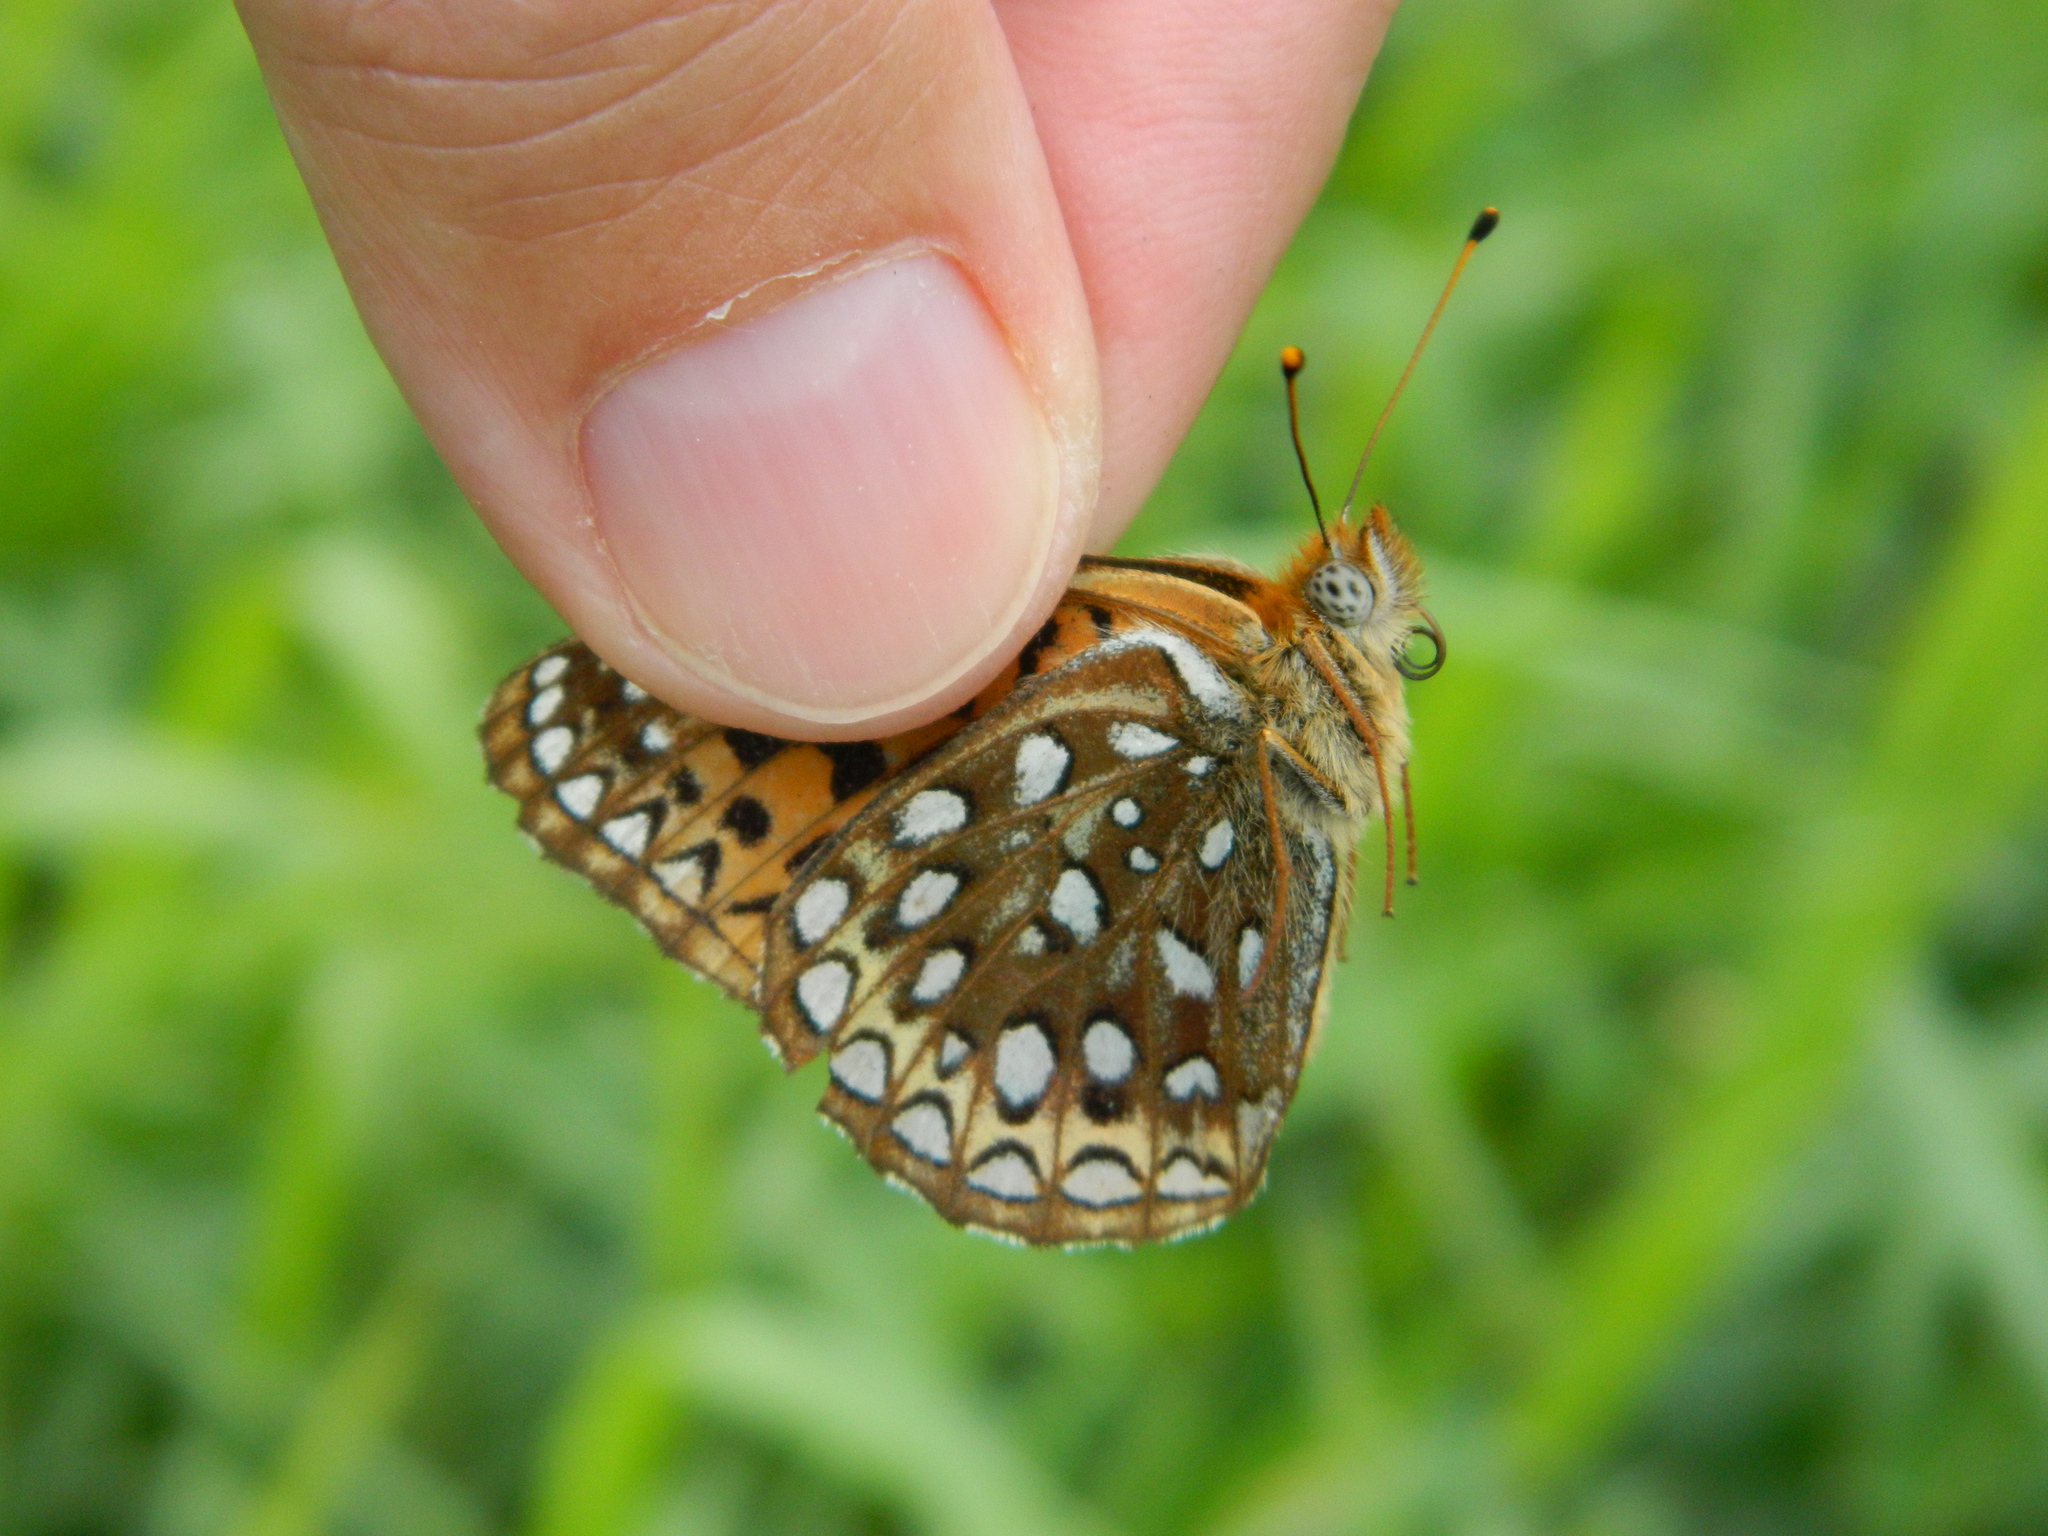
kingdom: Animalia
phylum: Arthropoda
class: Insecta
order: Lepidoptera
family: Nymphalidae
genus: Speyeria
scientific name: Speyeria atlantis
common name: Atlantis fritillary
